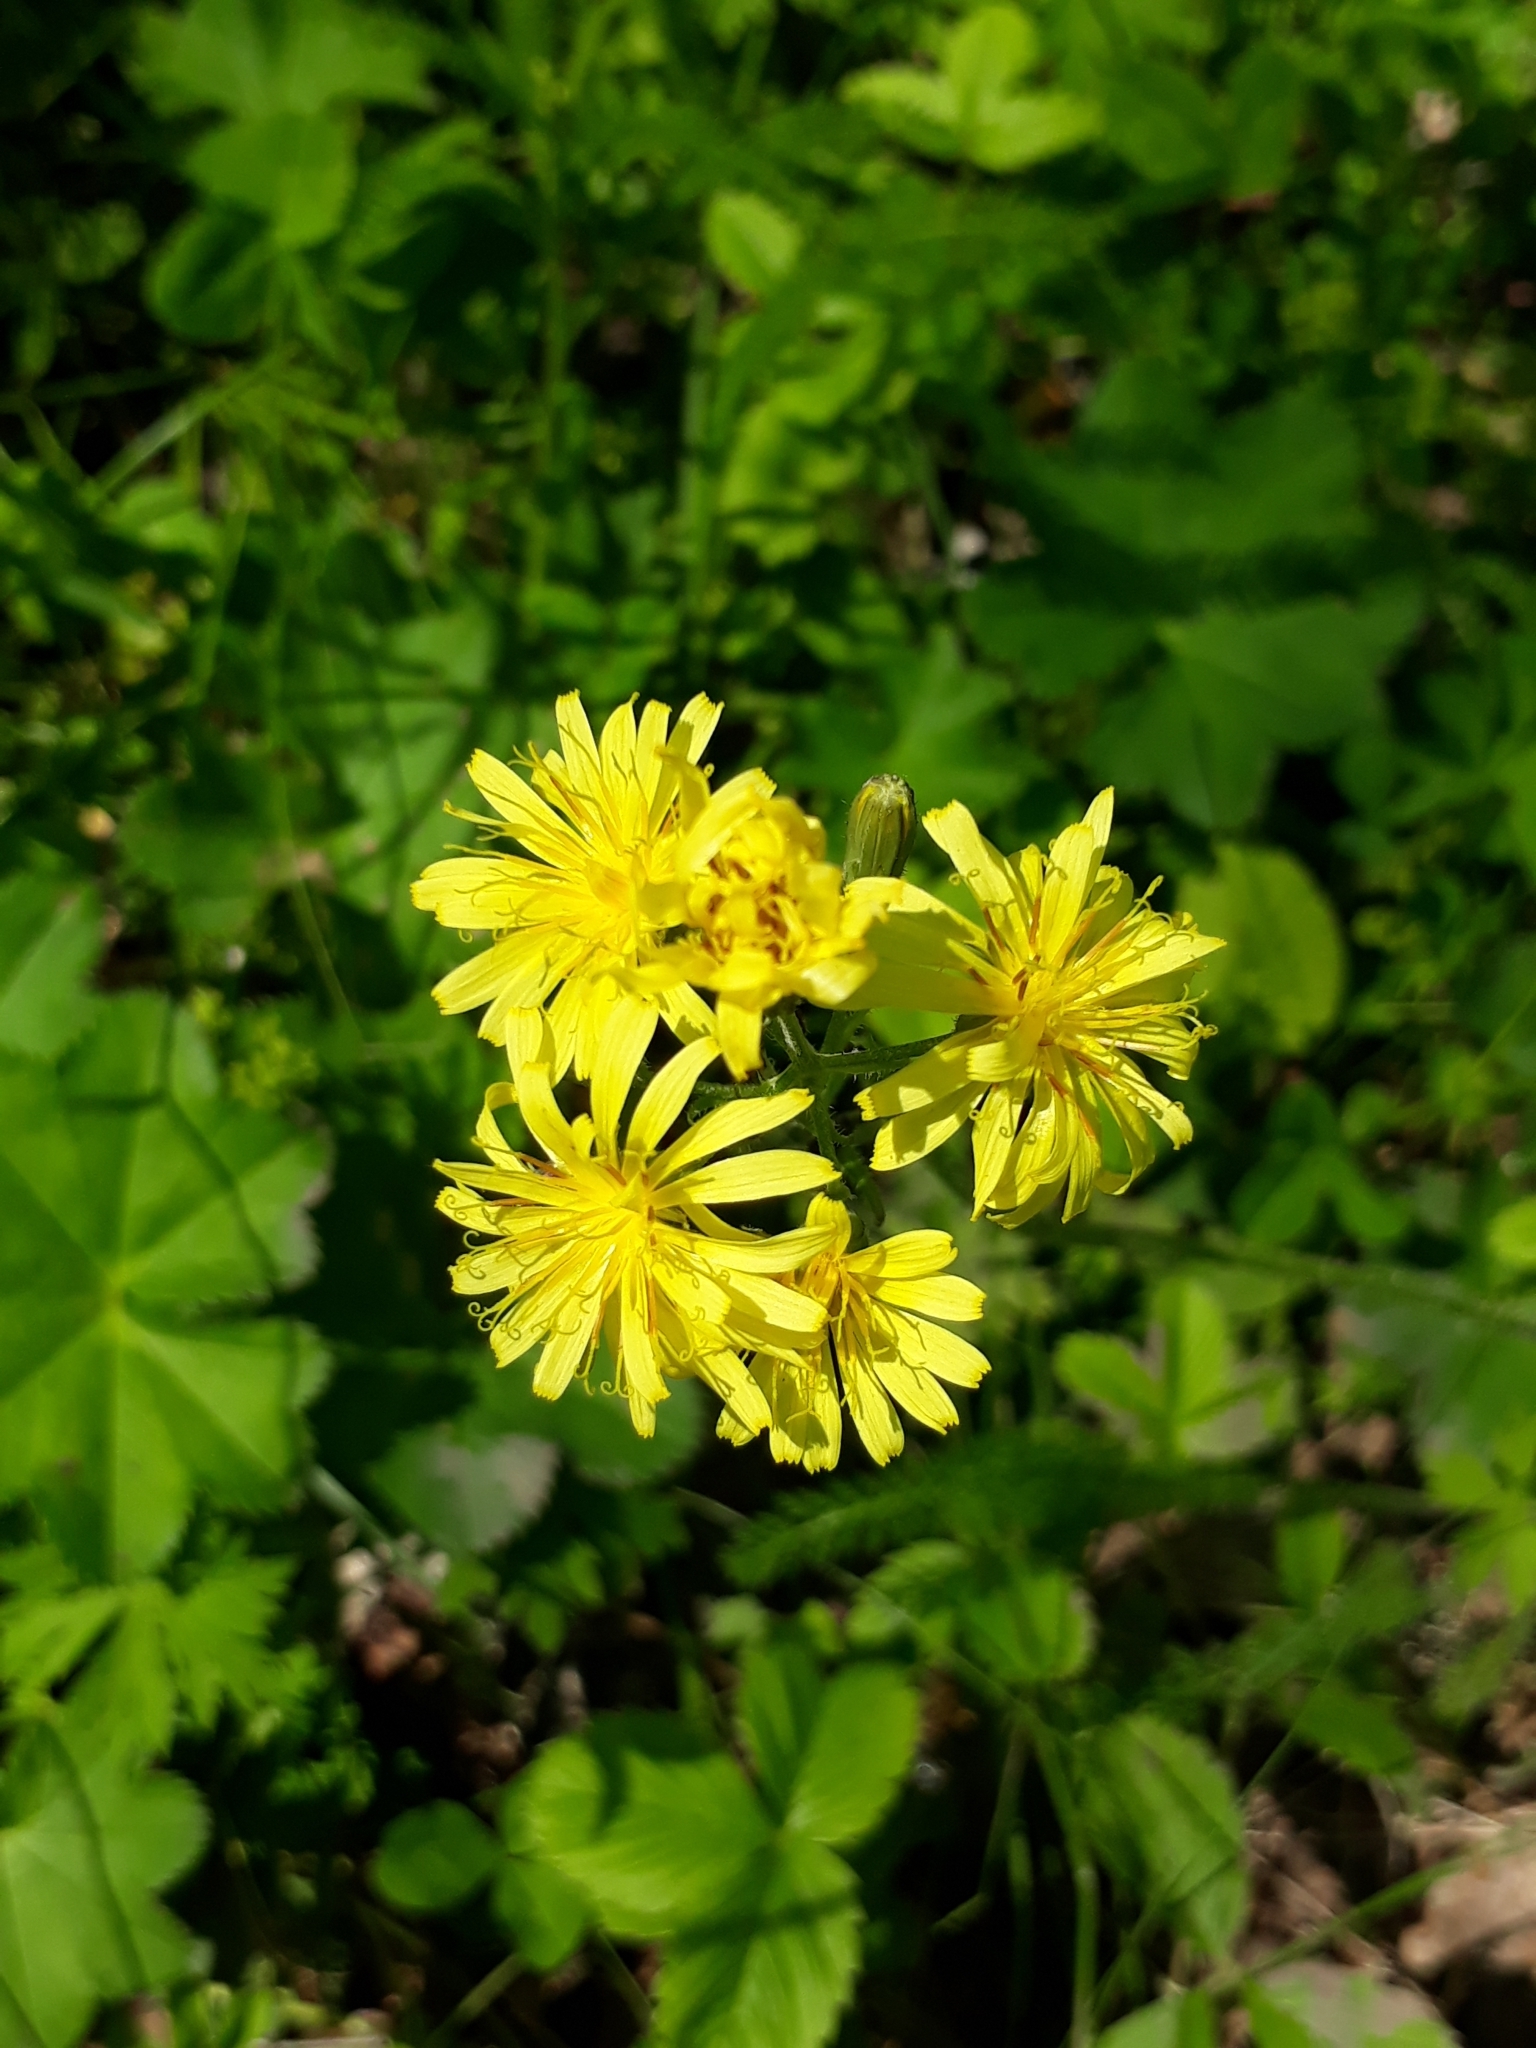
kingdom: Plantae
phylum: Tracheophyta
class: Magnoliopsida
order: Asterales
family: Asteraceae
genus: Crepis
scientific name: Crepis praemorsa
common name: Leafless hawk's-beard
